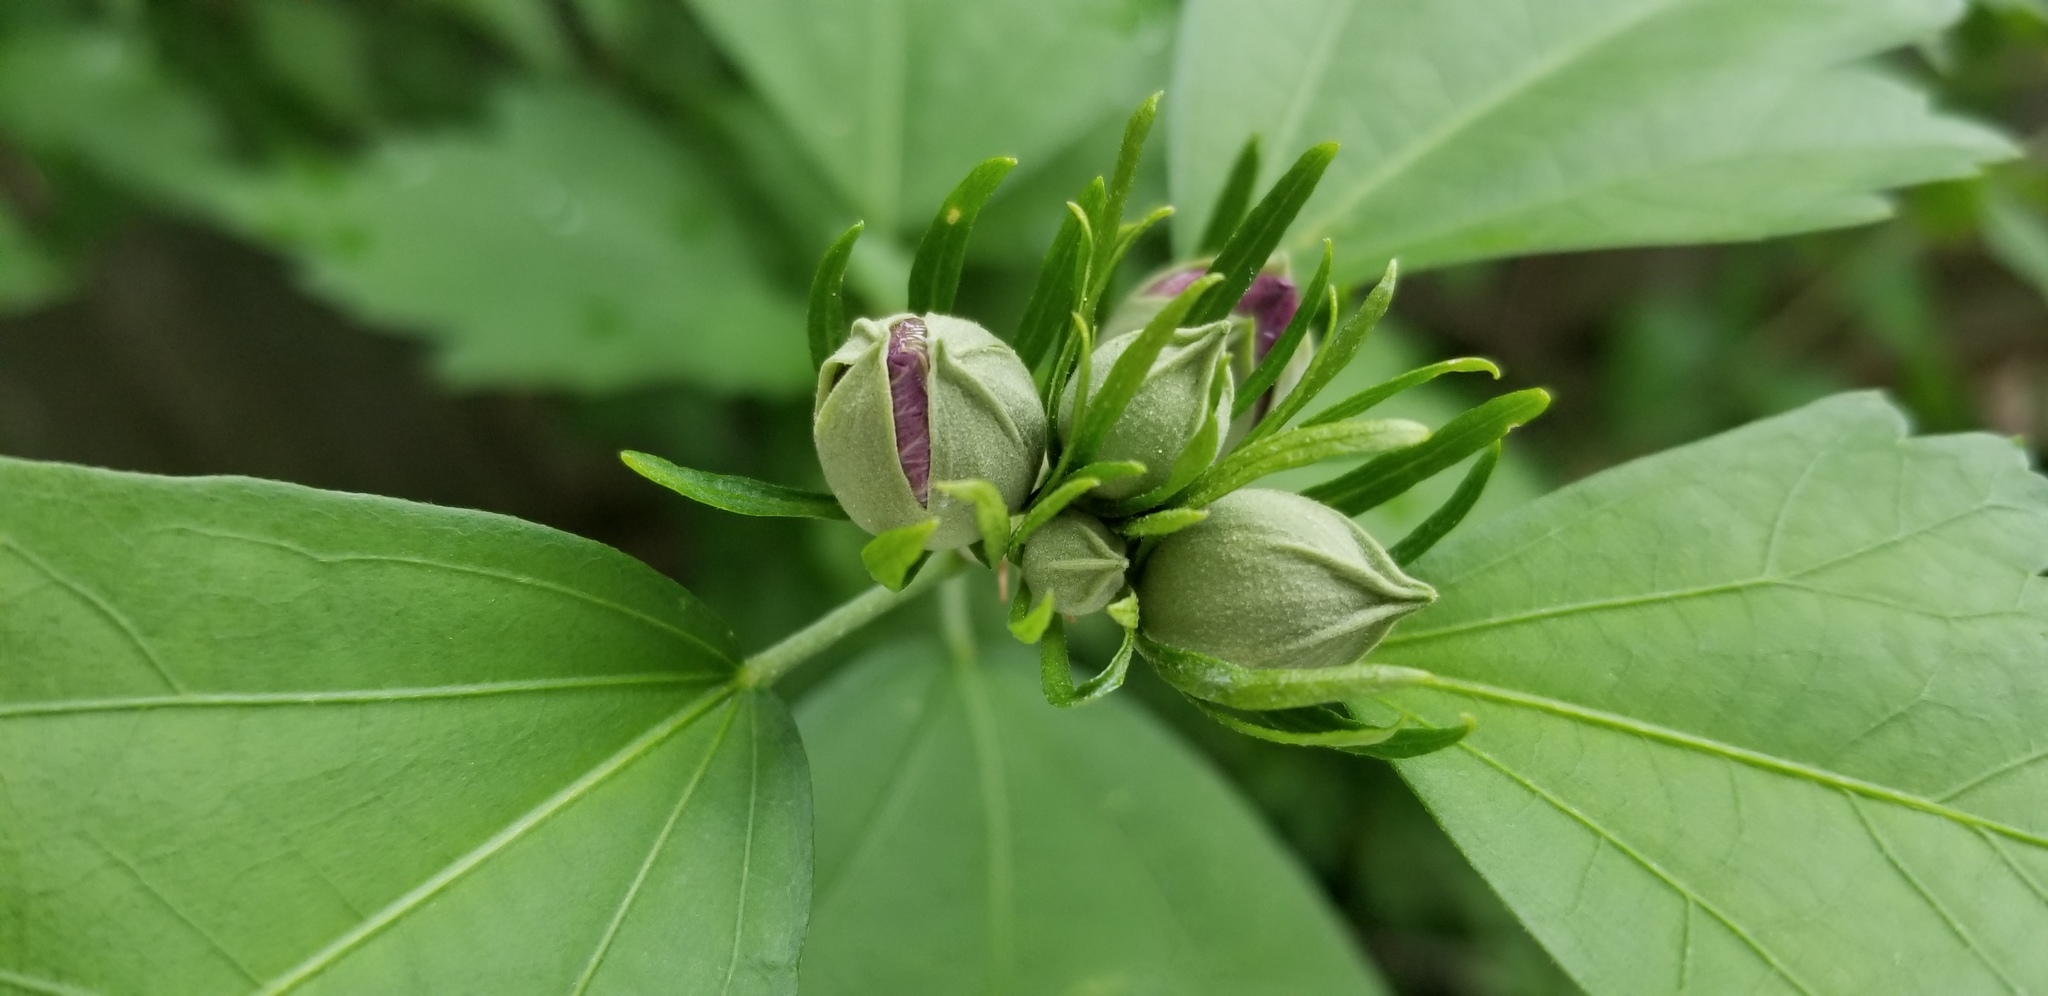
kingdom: Plantae
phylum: Tracheophyta
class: Magnoliopsida
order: Malvales
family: Malvaceae
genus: Hibiscus
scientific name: Hibiscus syriacus
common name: Syrian ketmia
